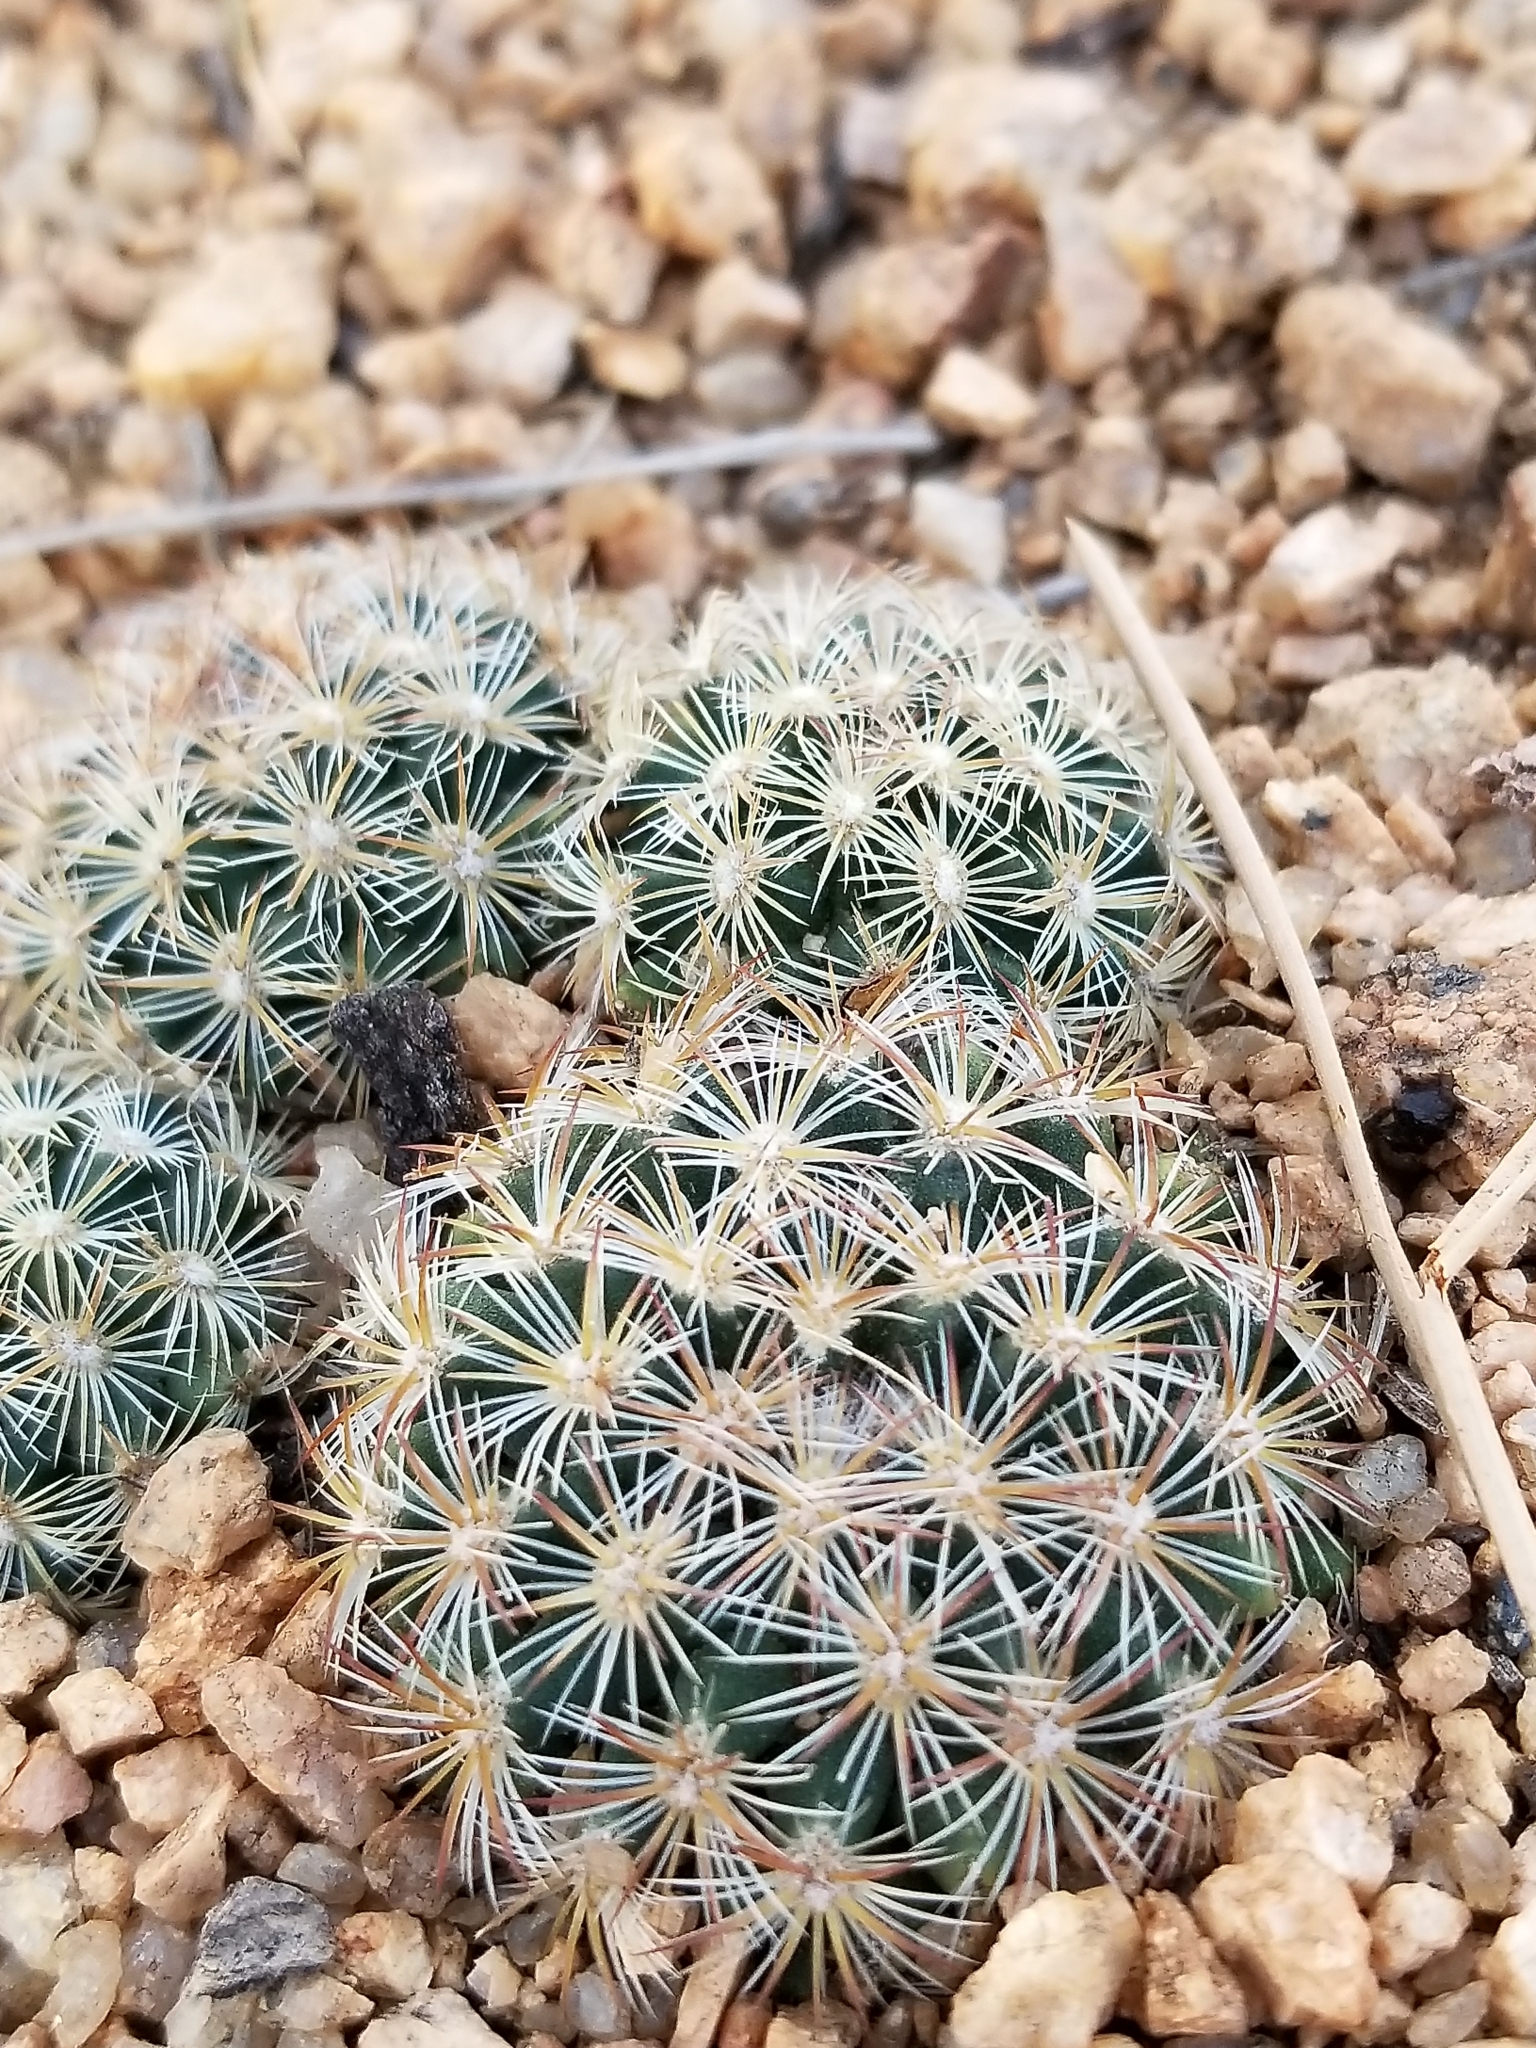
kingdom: Plantae
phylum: Tracheophyta
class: Magnoliopsida
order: Caryophyllales
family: Cactaceae
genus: Pediocactus
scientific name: Pediocactus simpsonii
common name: Simpson's hedgehog cactus
